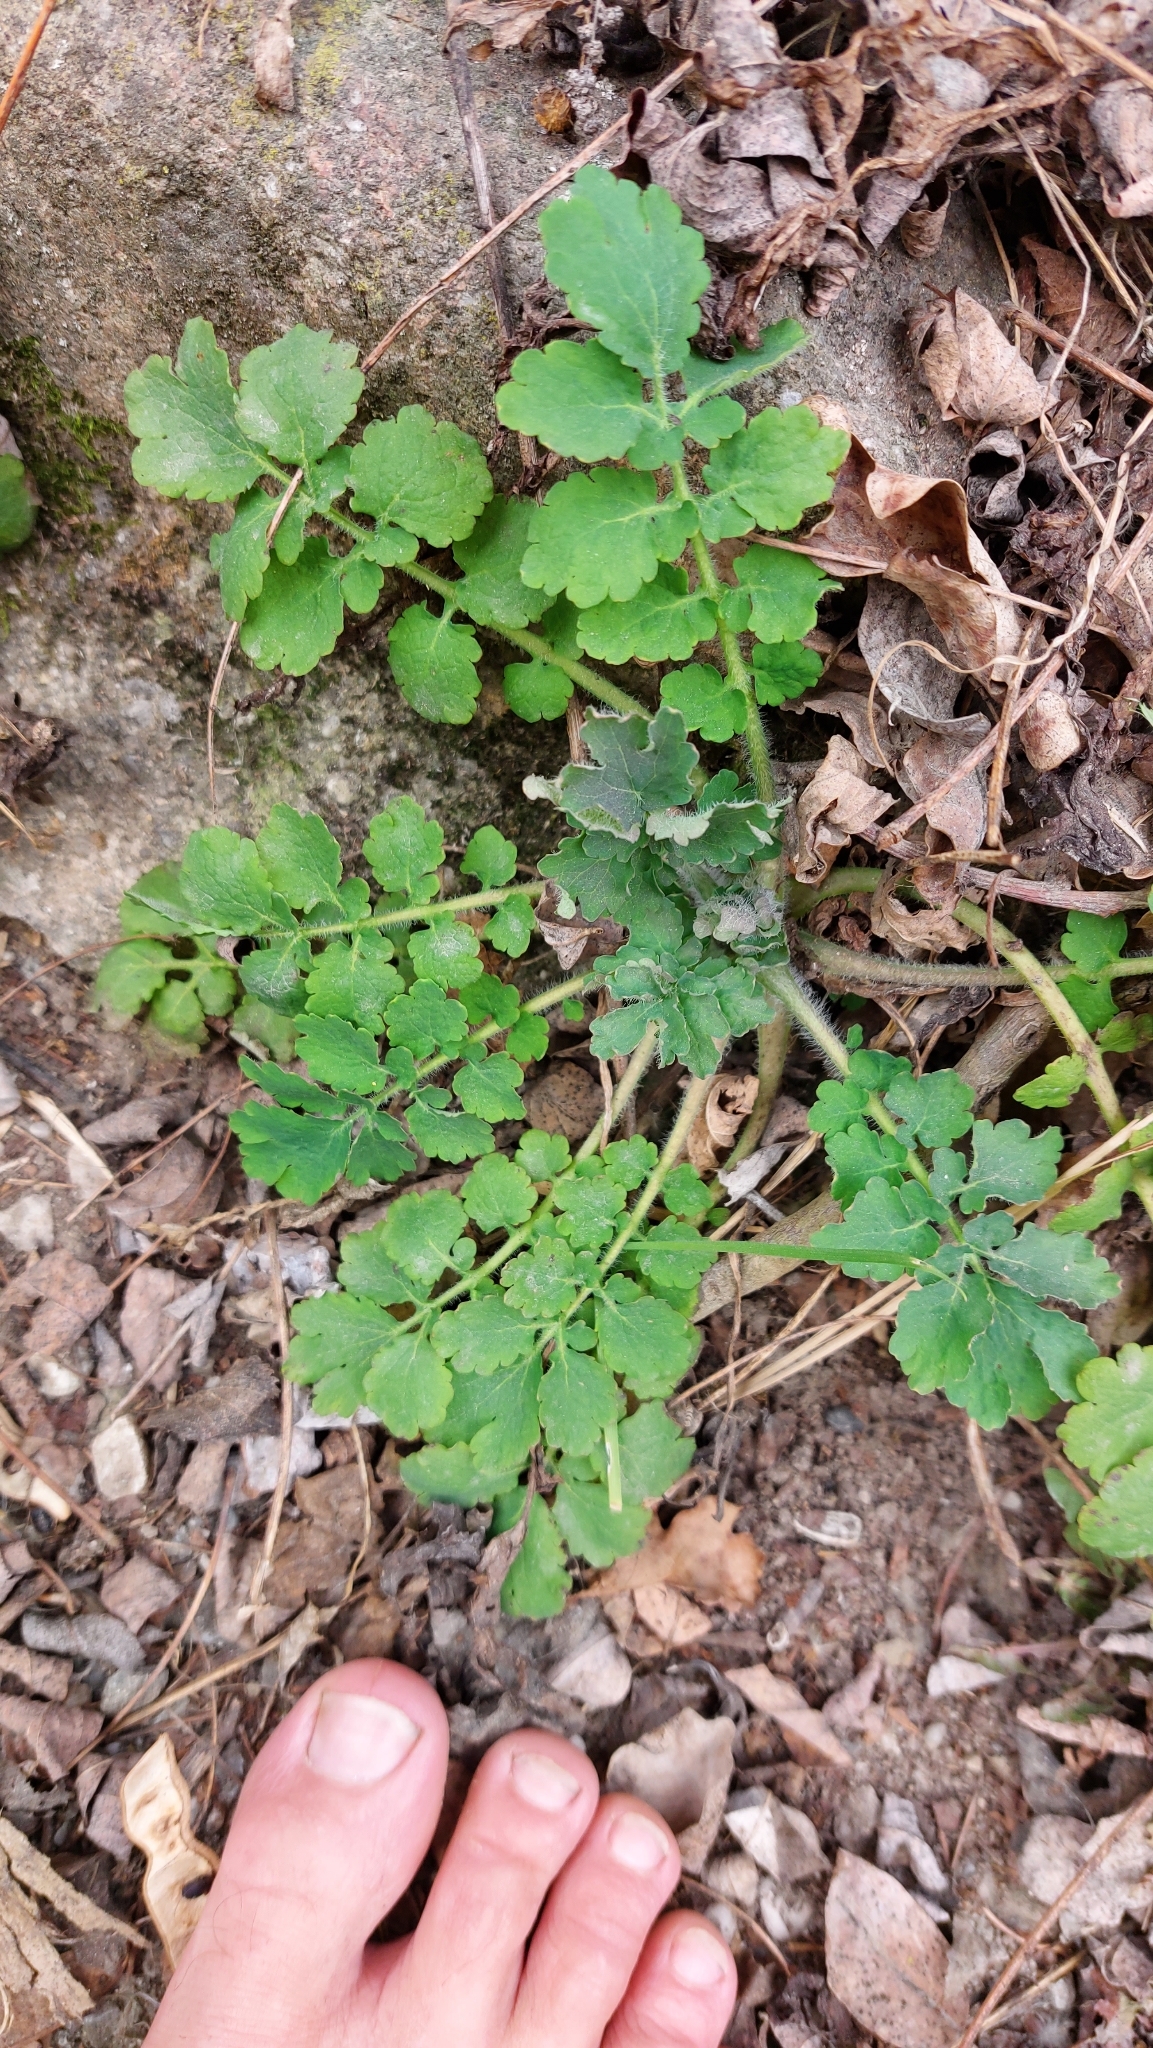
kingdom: Plantae
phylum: Tracheophyta
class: Magnoliopsida
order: Ranunculales
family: Papaveraceae
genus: Chelidonium
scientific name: Chelidonium majus
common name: Greater celandine
